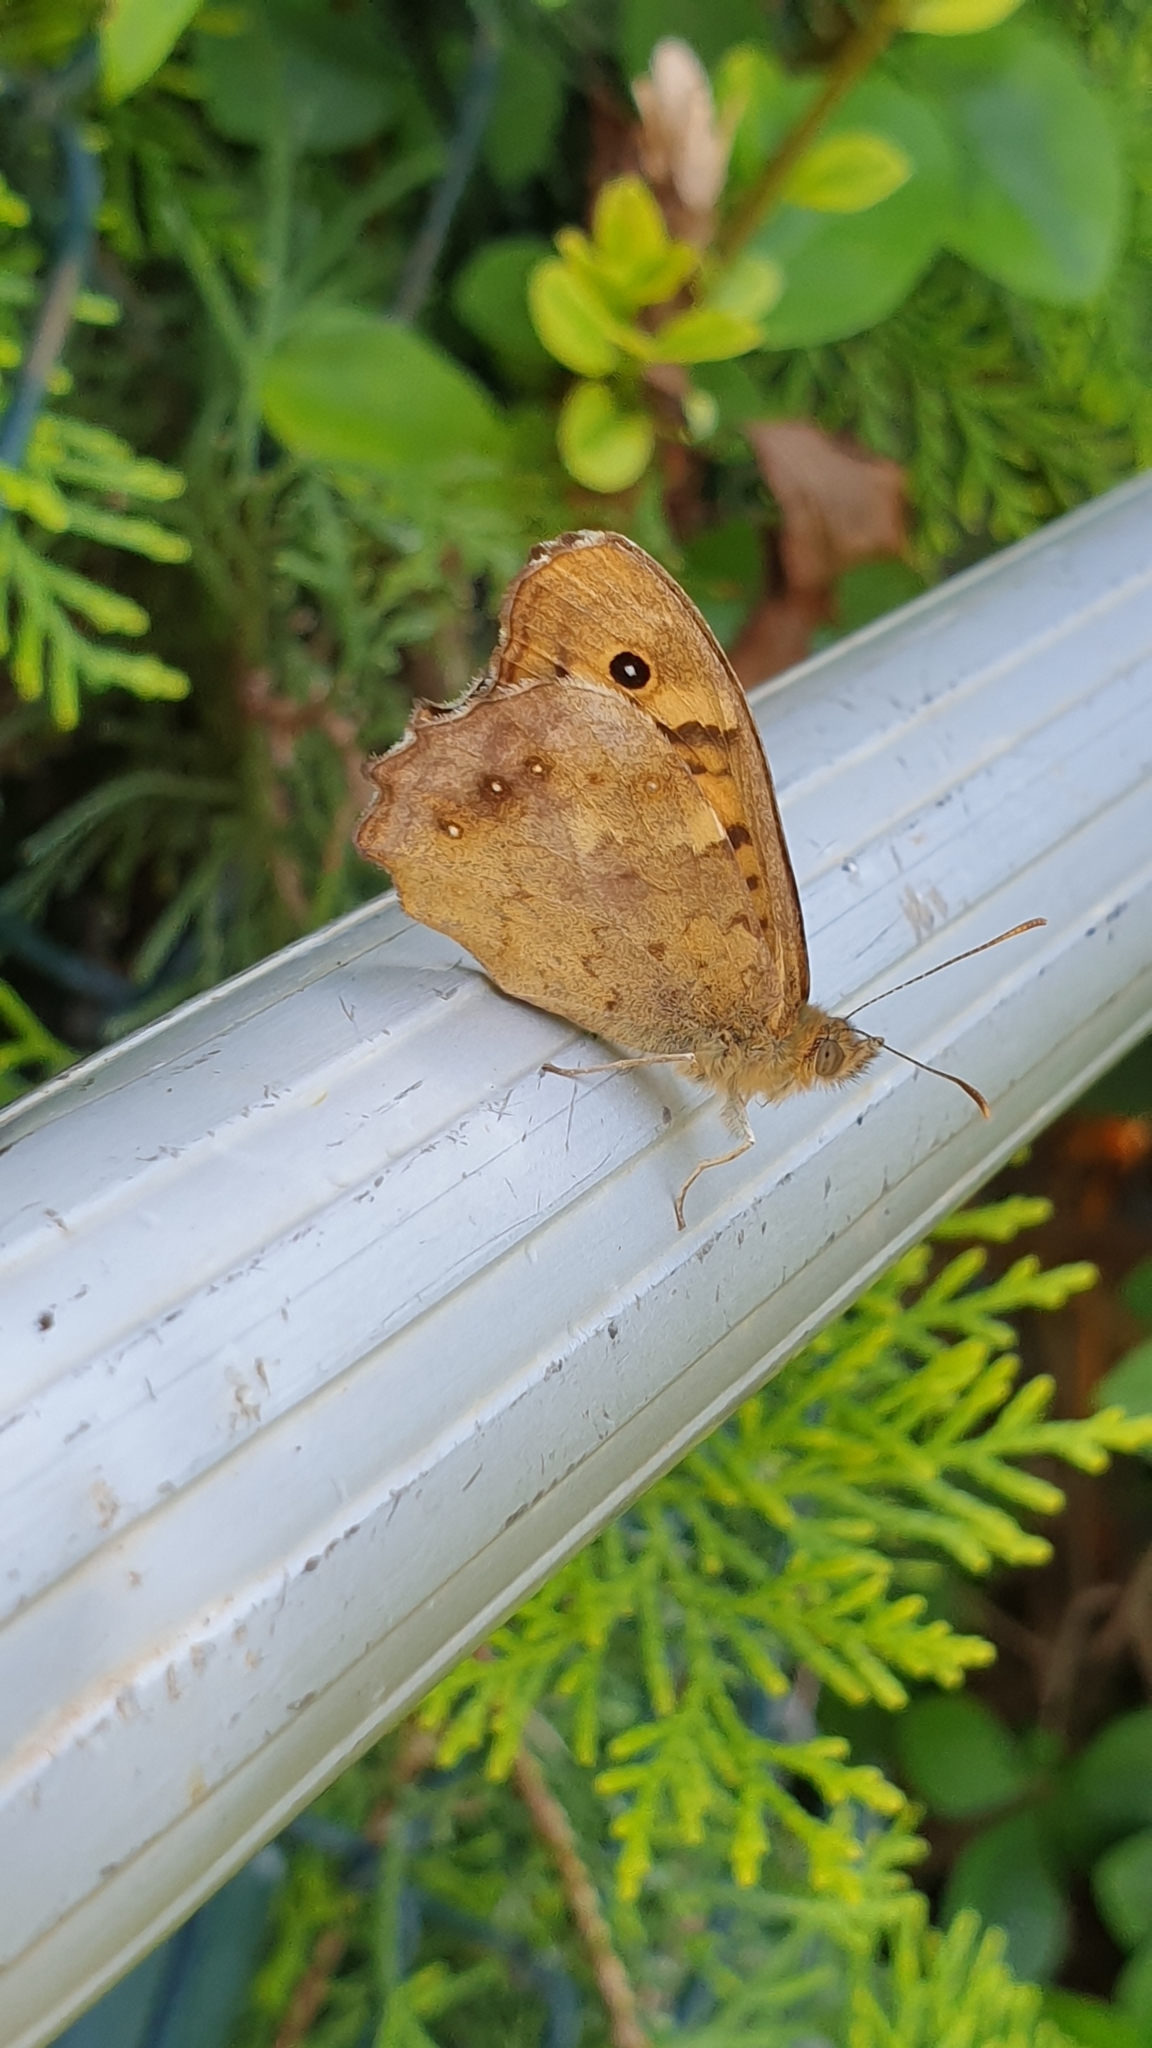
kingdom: Animalia
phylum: Arthropoda
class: Insecta
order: Lepidoptera
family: Nymphalidae
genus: Pararge
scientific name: Pararge aegeria
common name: Speckled wood
